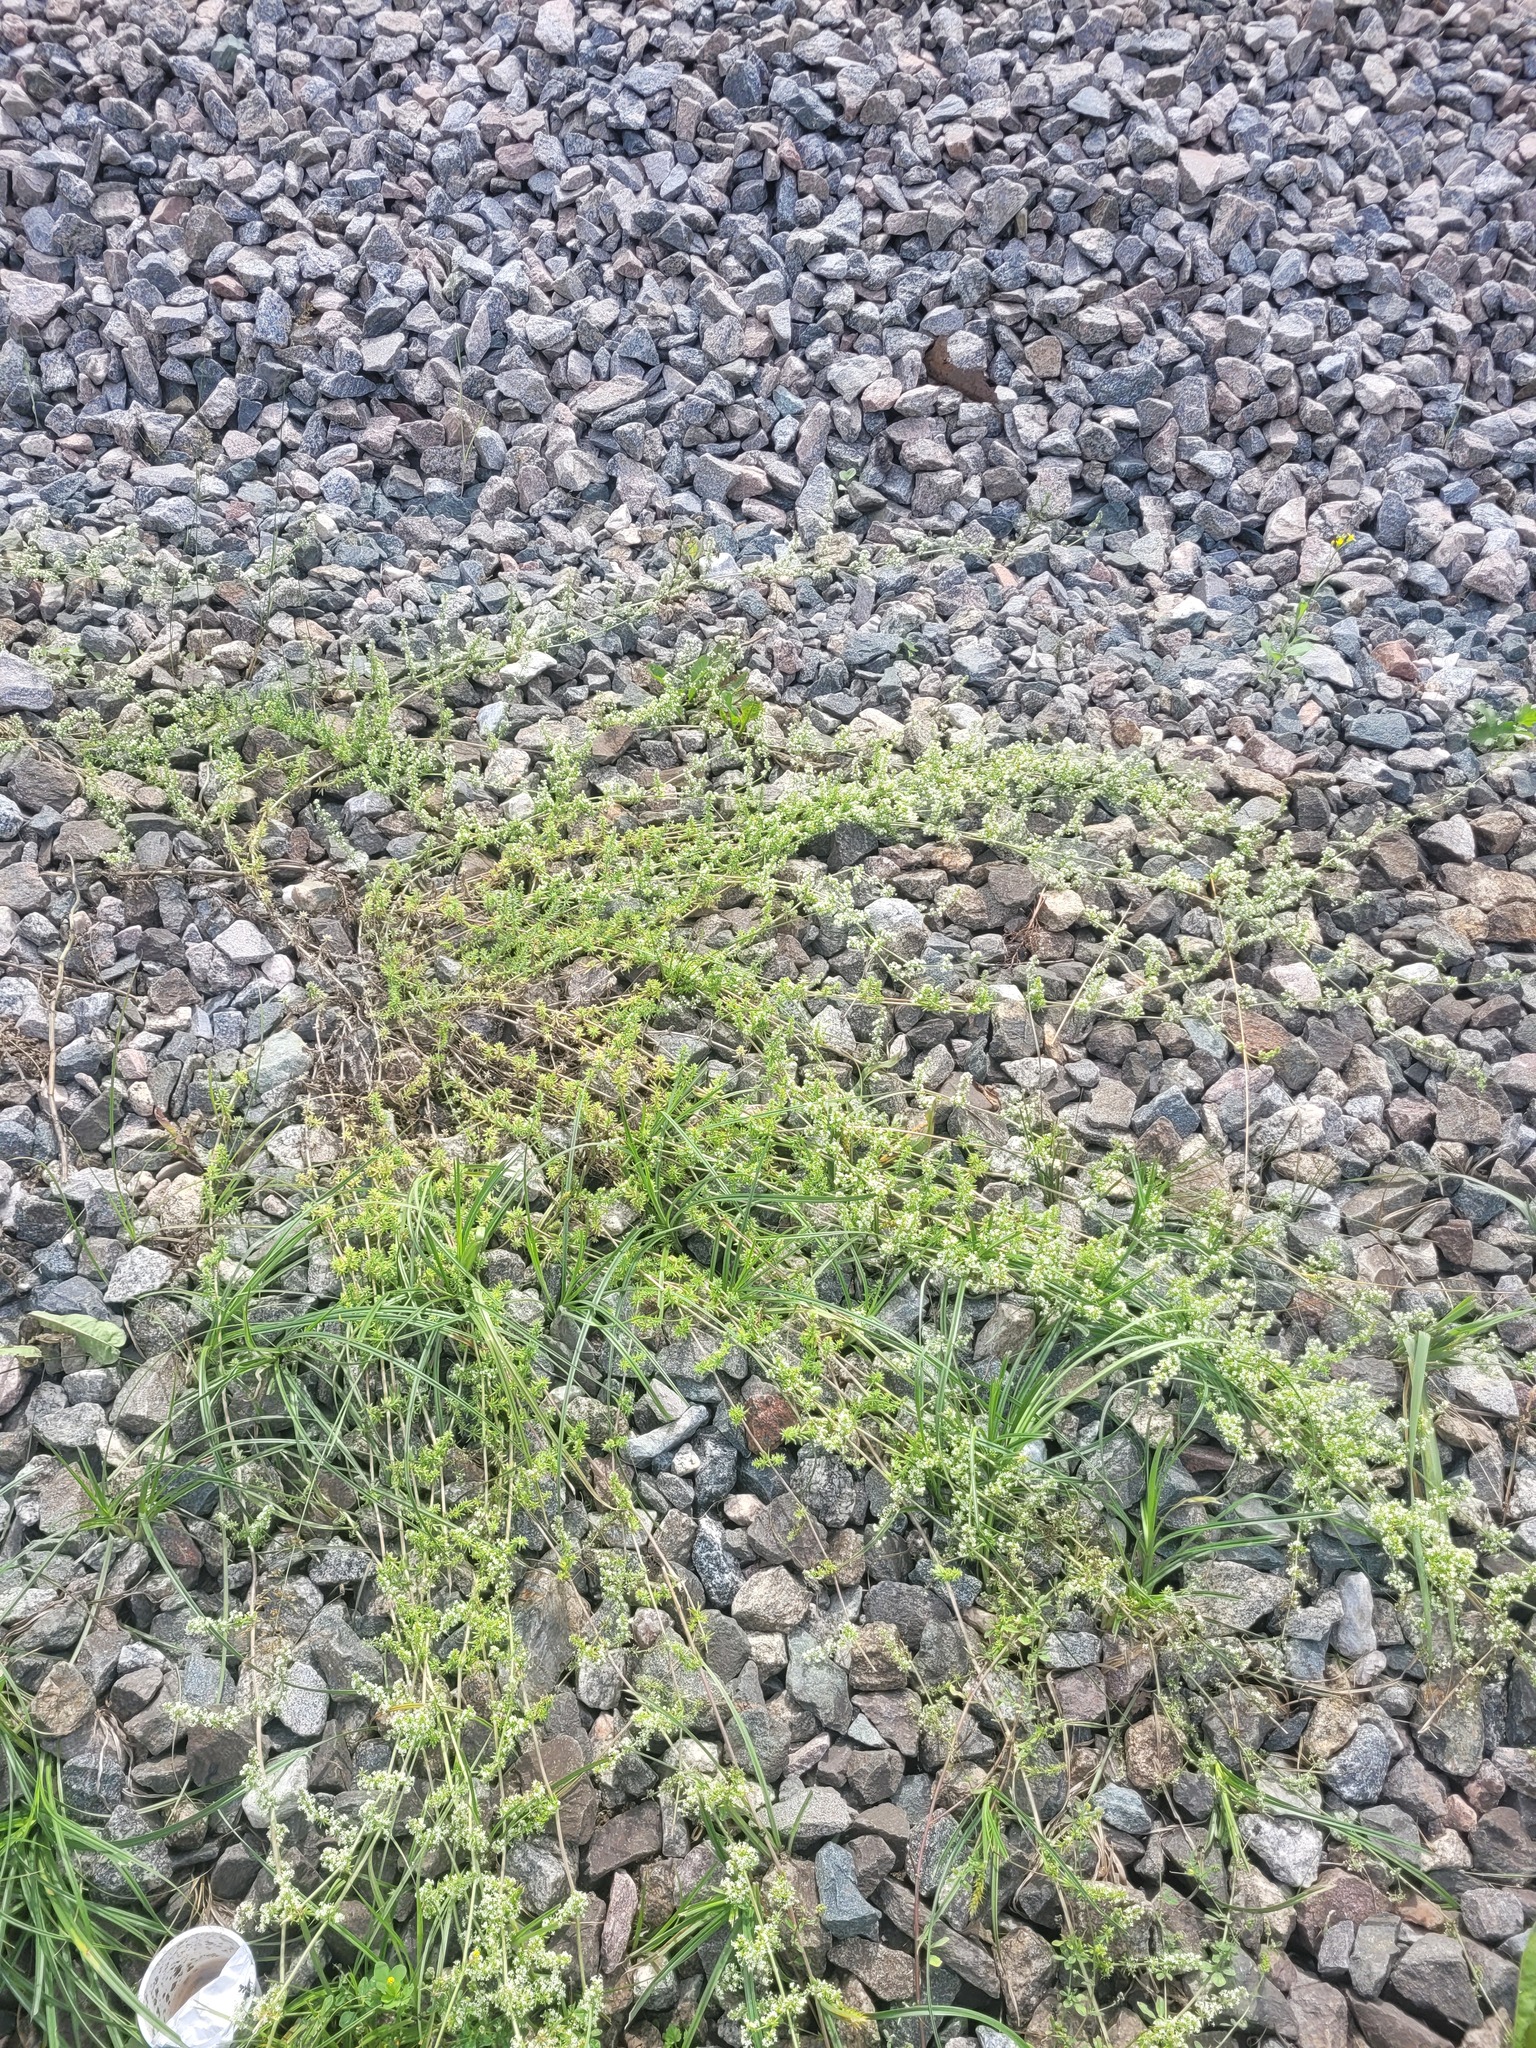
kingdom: Plantae
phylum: Tracheophyta
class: Magnoliopsida
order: Gentianales
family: Rubiaceae
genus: Galium
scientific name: Galium humifusum
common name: Spreading bedstraw
